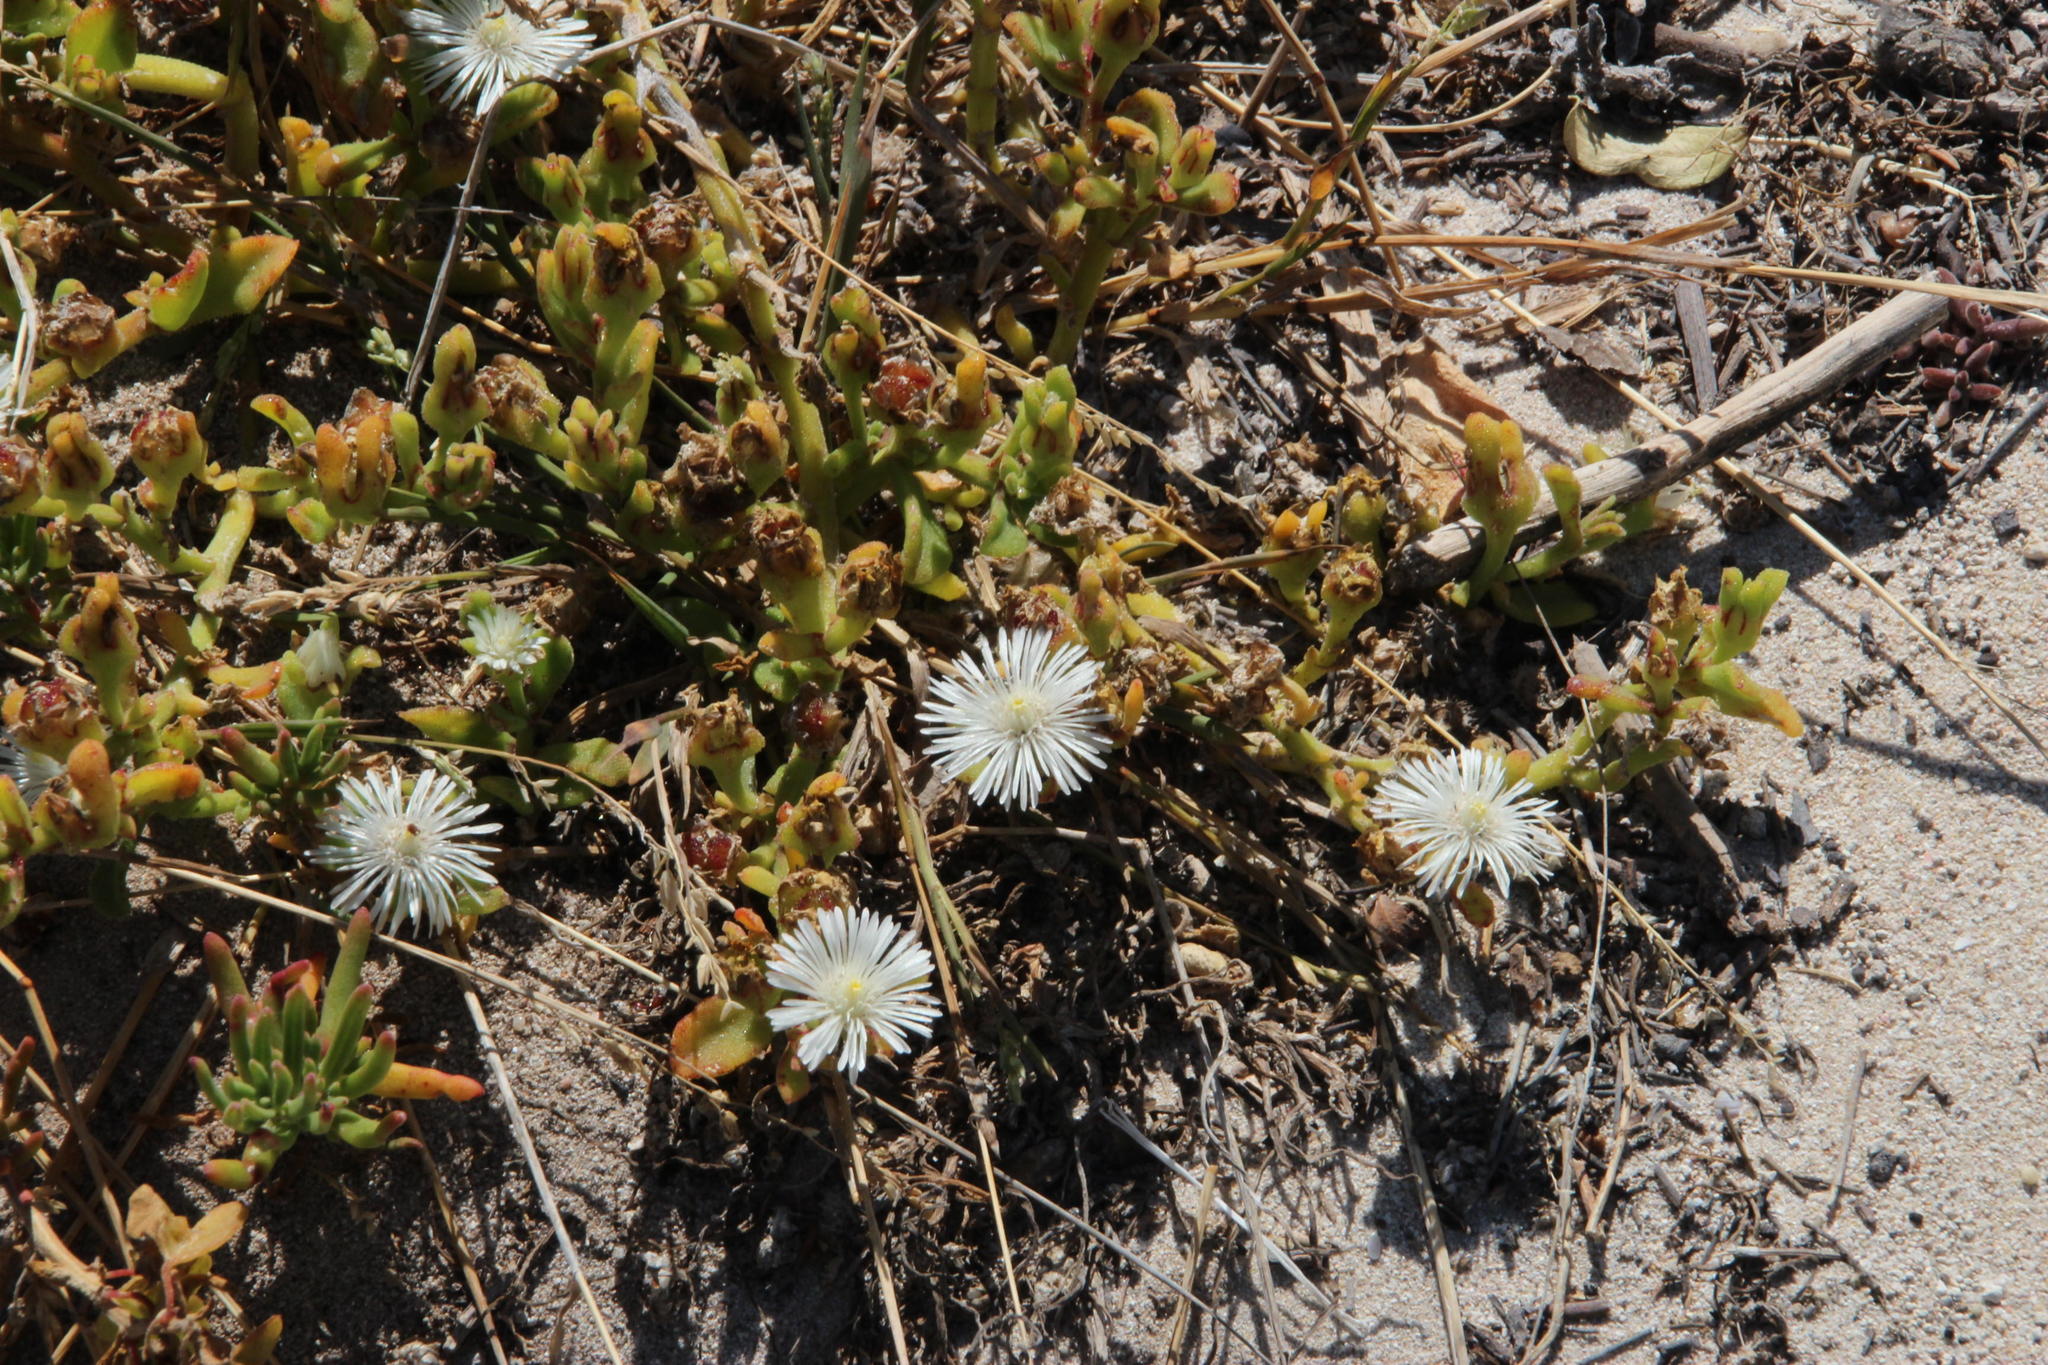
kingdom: Plantae
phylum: Tracheophyta
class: Magnoliopsida
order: Caryophyllales
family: Aizoaceae
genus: Mesembryanthemum
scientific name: Mesembryanthemum aitonis
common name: Angled iceplant
